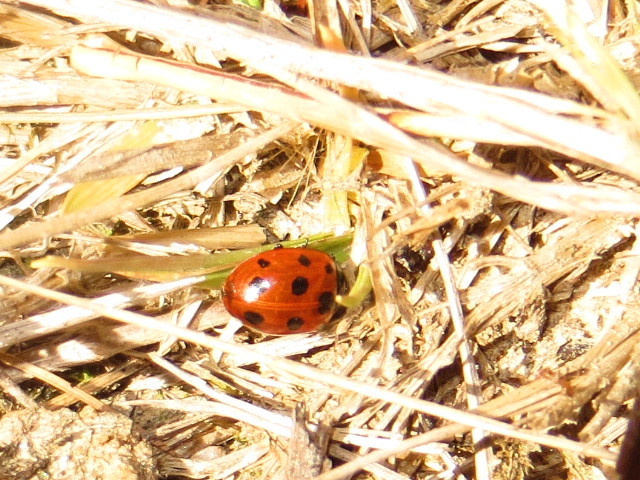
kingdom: Animalia
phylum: Arthropoda
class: Insecta
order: Coleoptera
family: Coccinellidae
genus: Coccinella
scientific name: Coccinella undecimpunctata
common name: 11-spot ladybird
